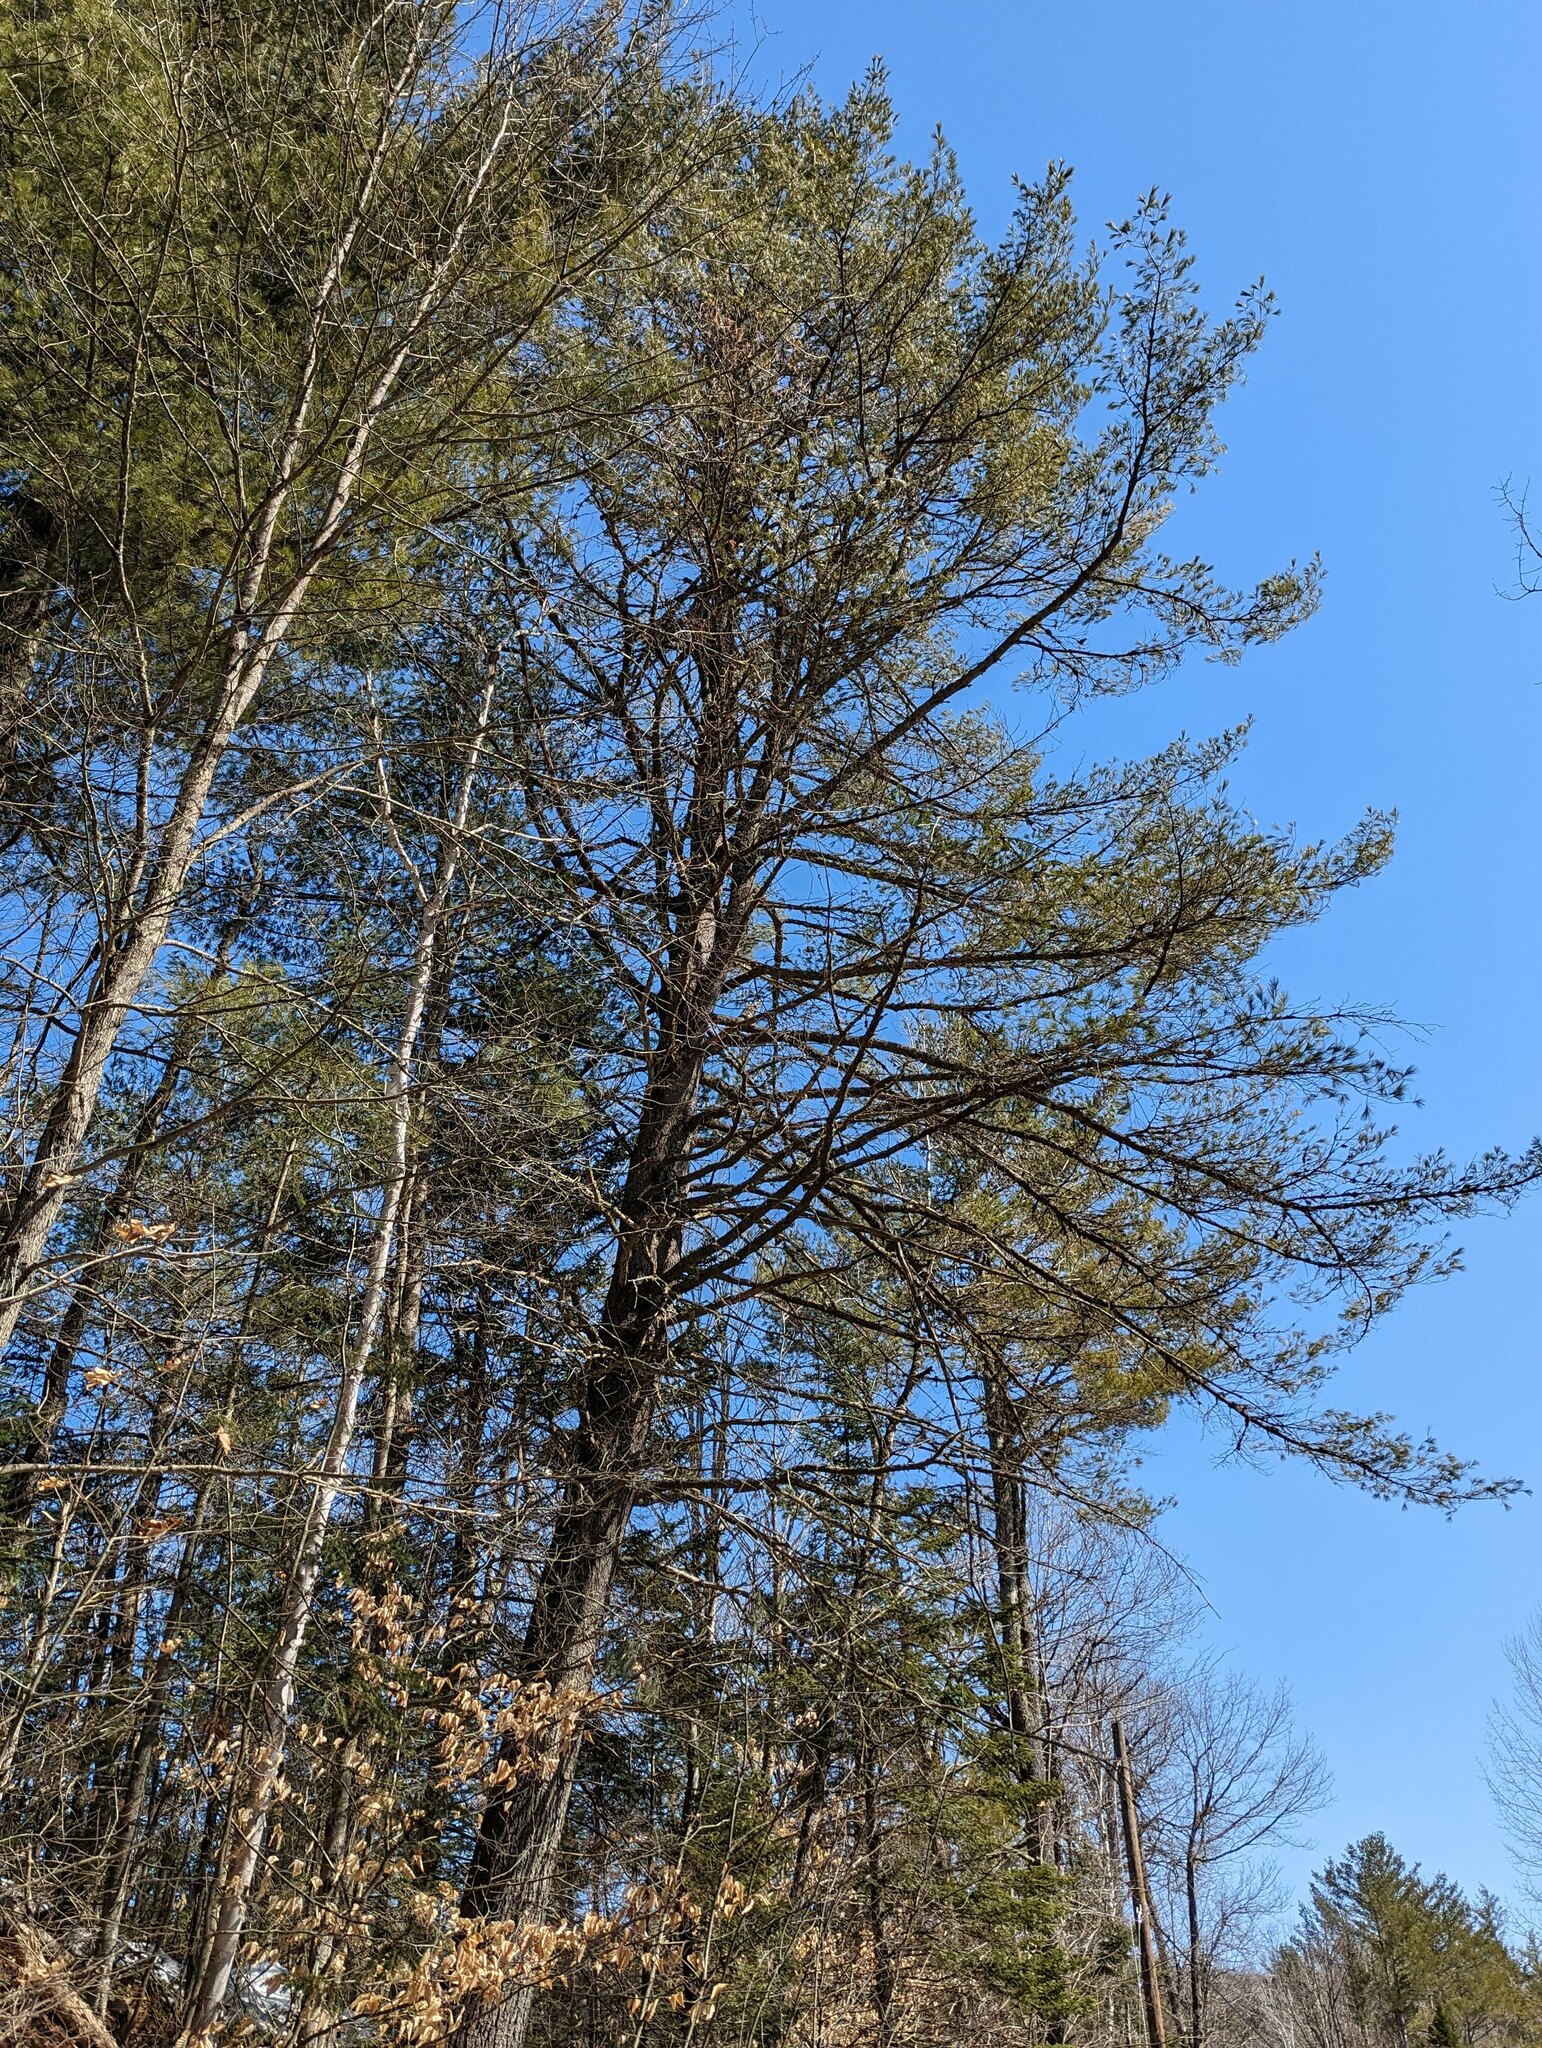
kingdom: Plantae
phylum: Tracheophyta
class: Pinopsida
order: Pinales
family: Pinaceae
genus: Pinus
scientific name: Pinus strobus
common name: Weymouth pine
